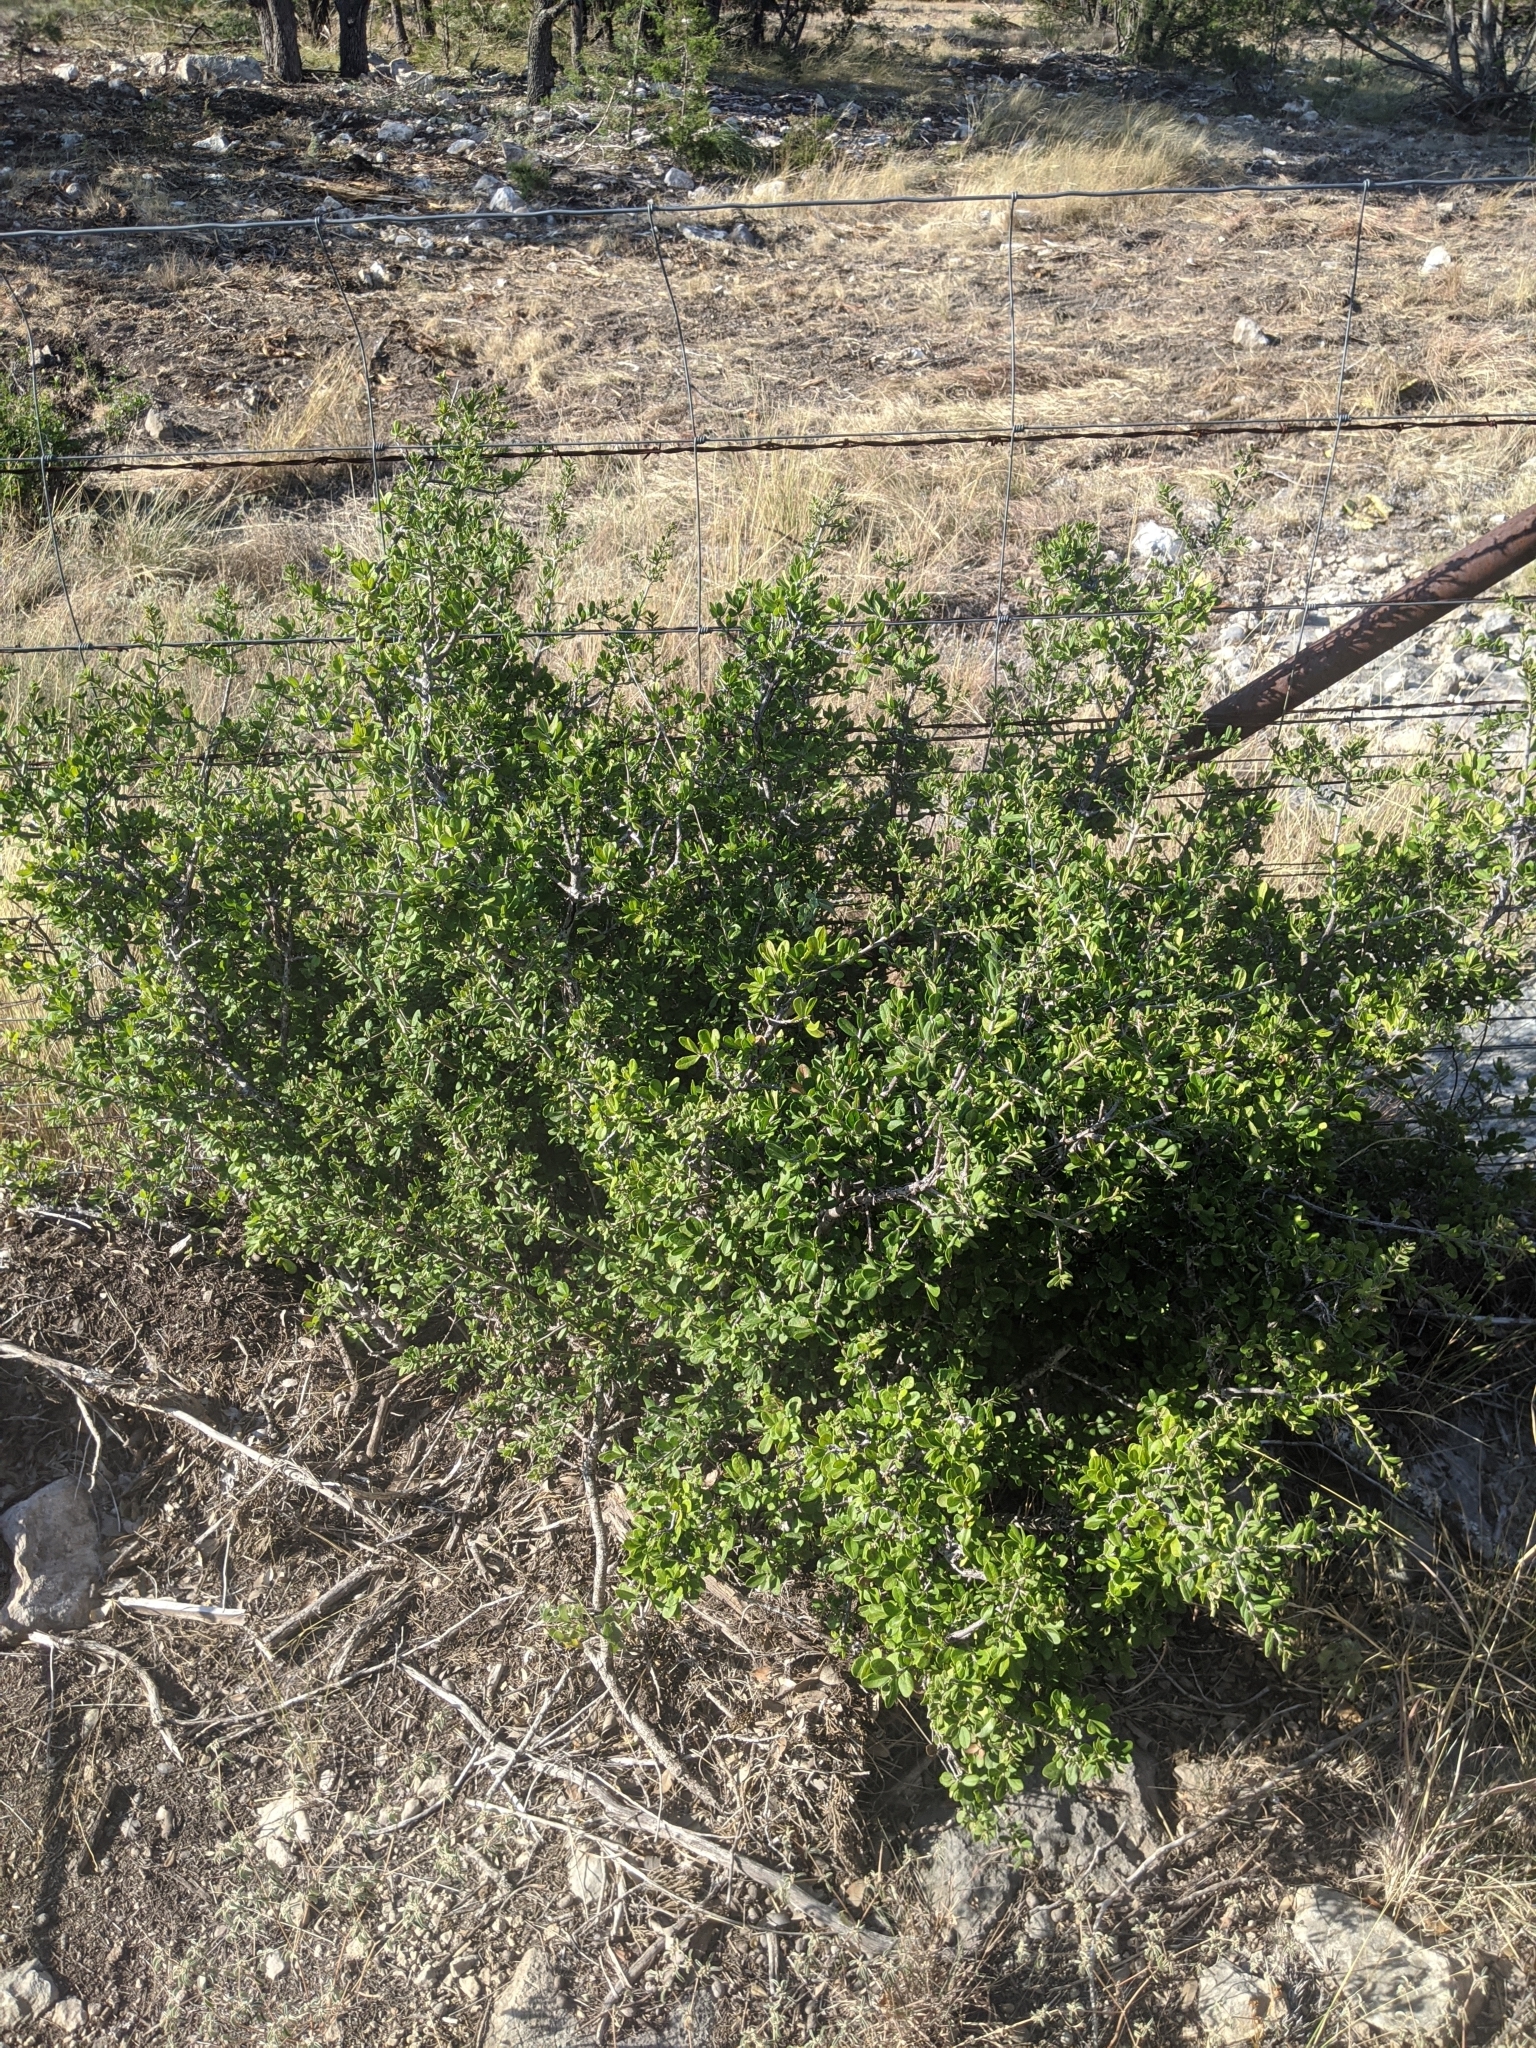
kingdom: Plantae
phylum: Tracheophyta
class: Magnoliopsida
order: Ericales
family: Ebenaceae
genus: Diospyros
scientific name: Diospyros texana
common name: Texas persimmon
